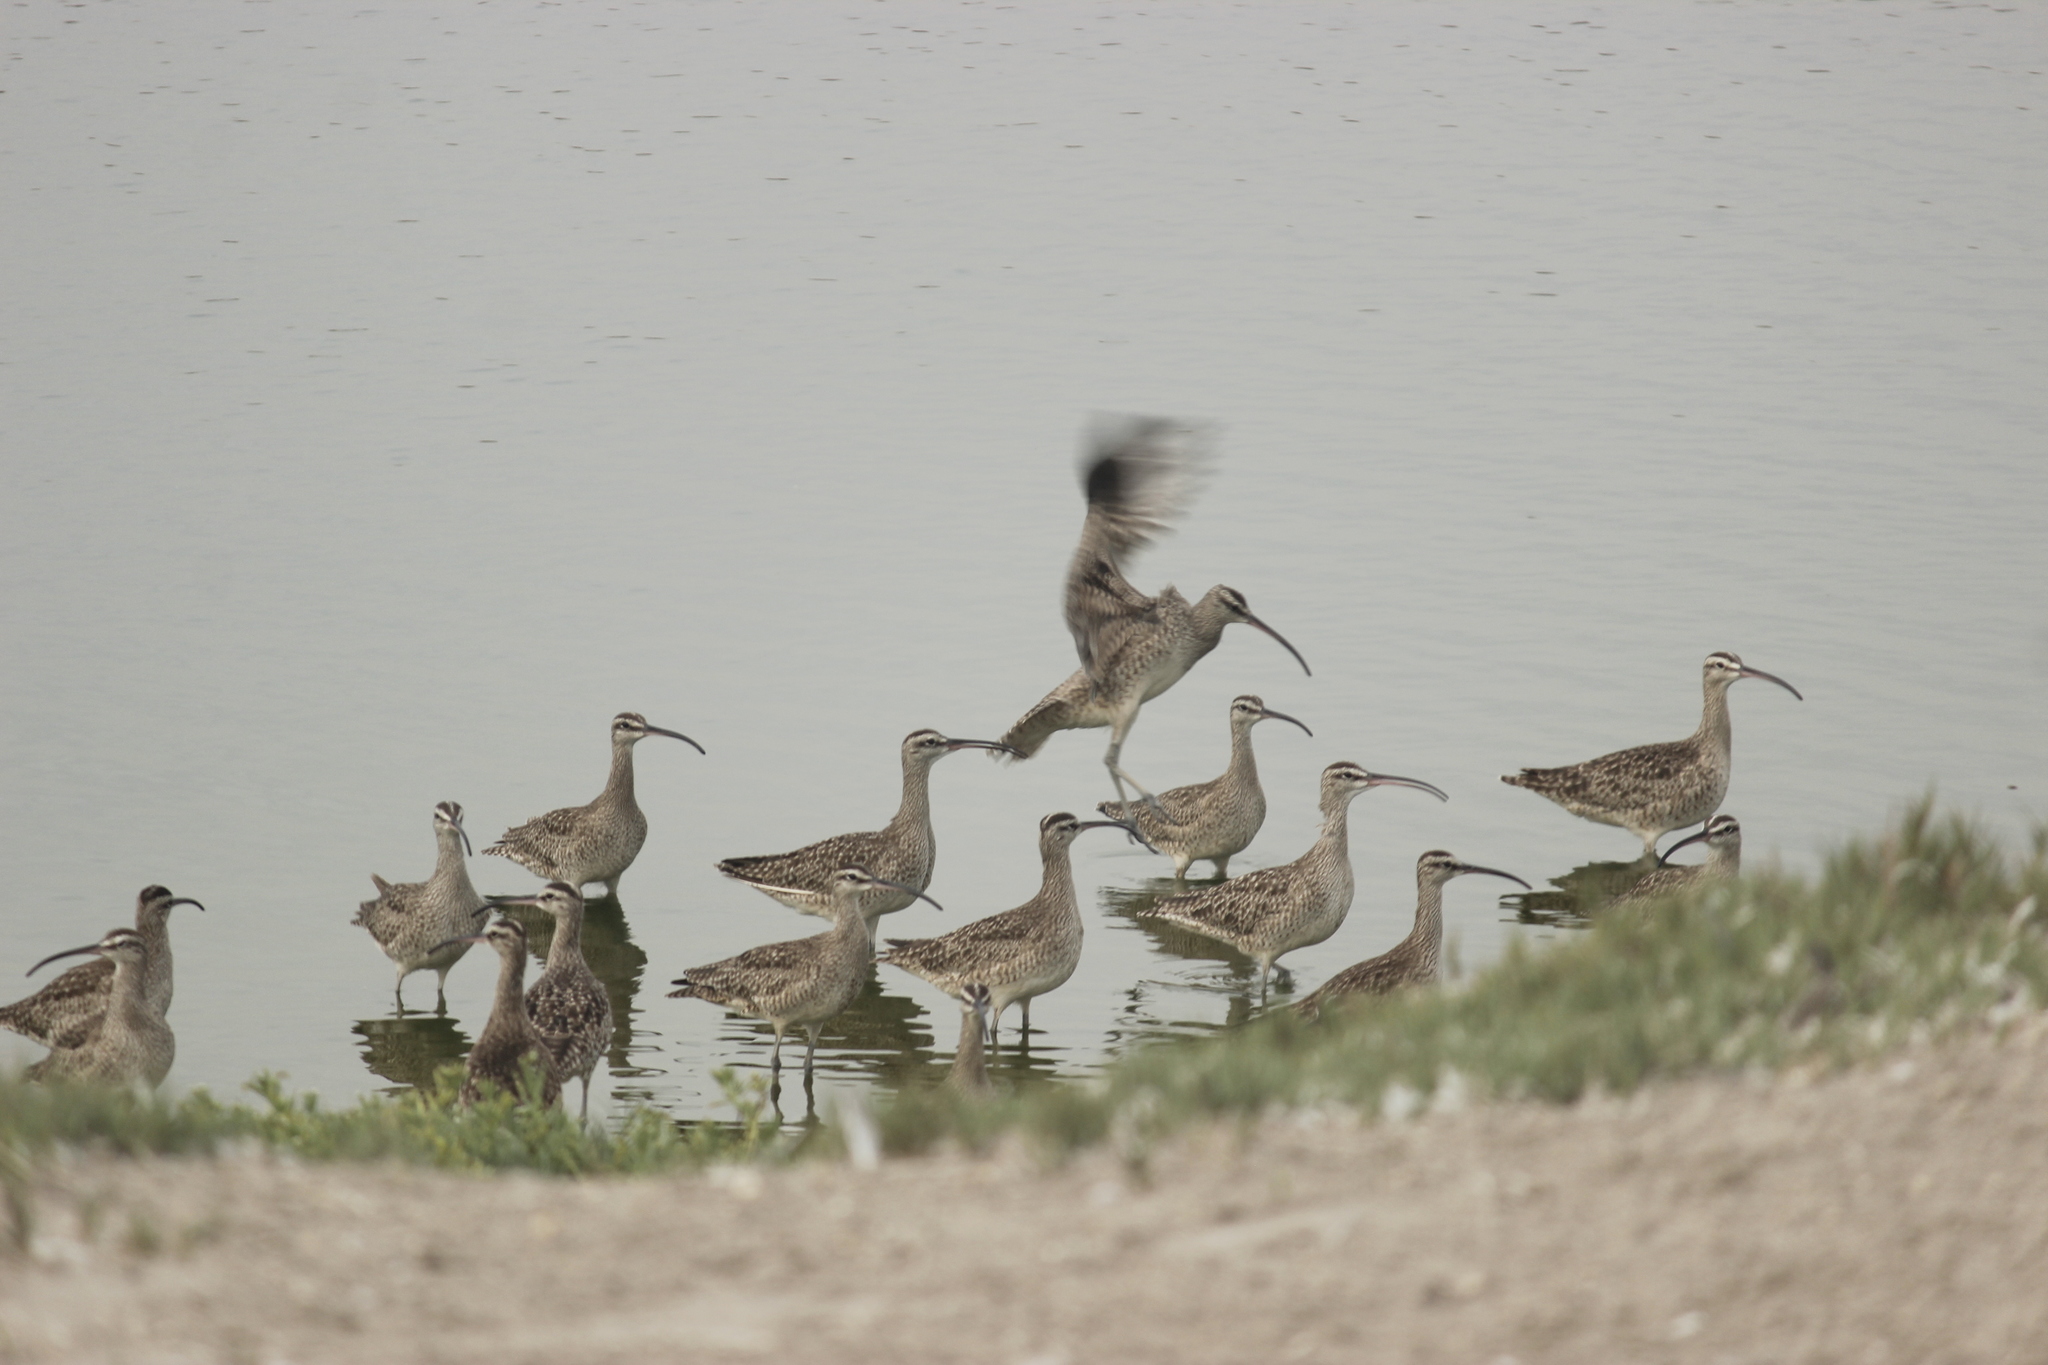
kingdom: Animalia
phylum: Chordata
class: Aves
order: Charadriiformes
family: Scolopacidae
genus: Numenius
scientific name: Numenius phaeopus
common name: Whimbrel
